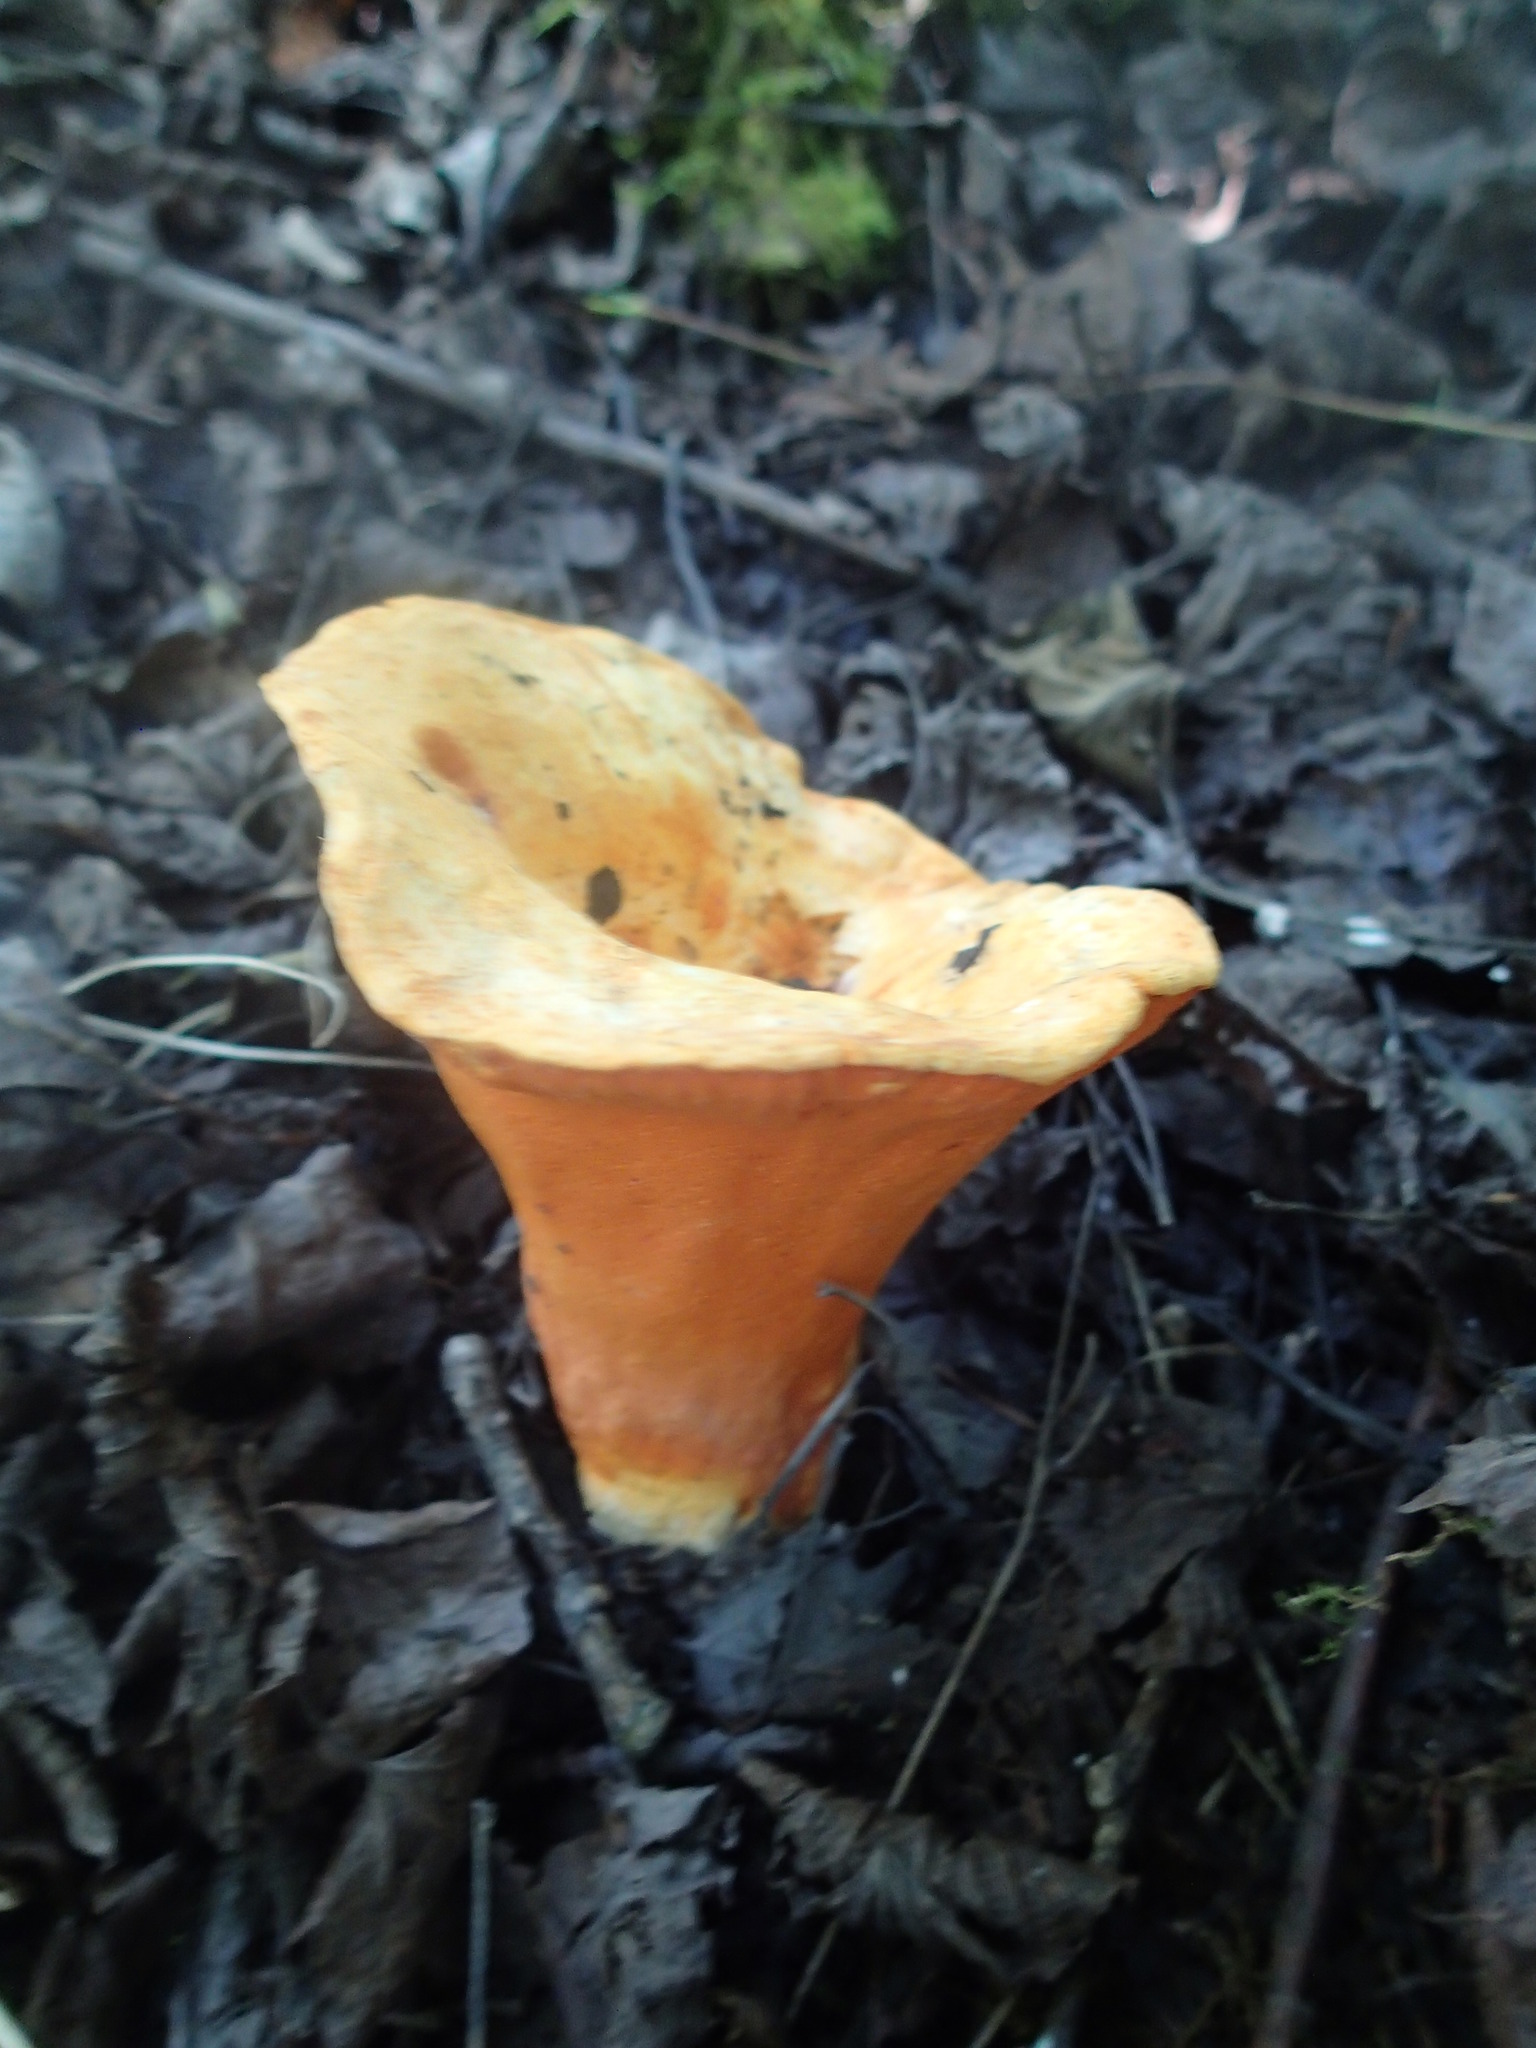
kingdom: Fungi
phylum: Ascomycota
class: Sordariomycetes
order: Hypocreales
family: Hypocreaceae
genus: Hypomyces
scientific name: Hypomyces lactifluorum
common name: Lobster mushroom
